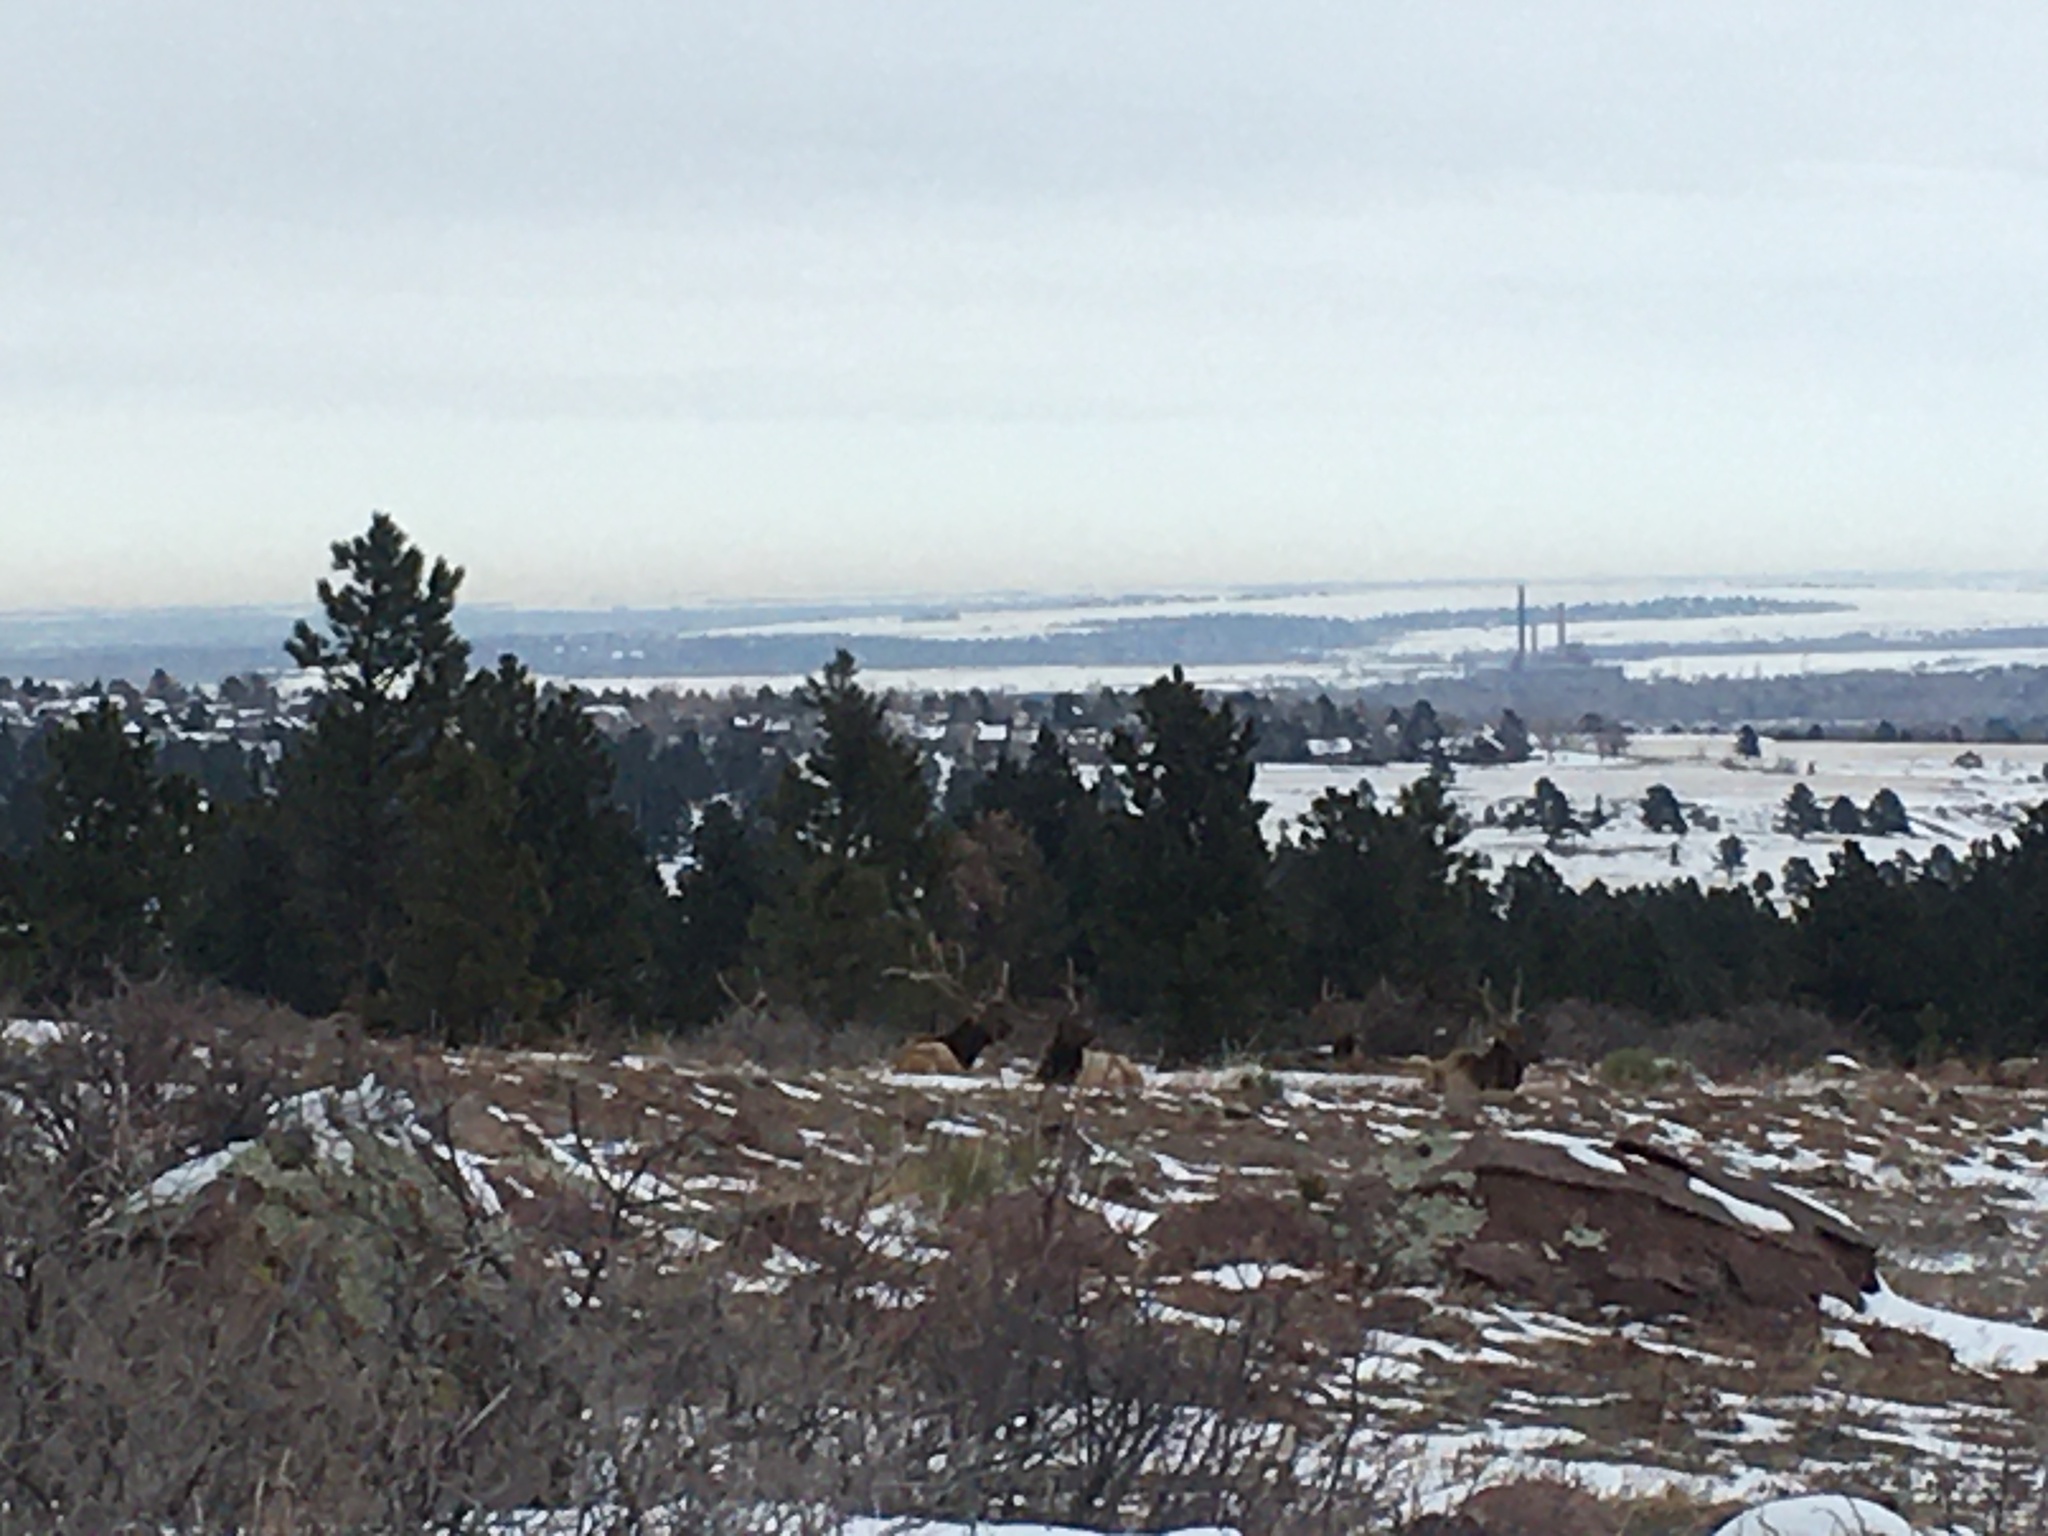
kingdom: Animalia
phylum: Chordata
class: Mammalia
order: Artiodactyla
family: Cervidae
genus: Cervus
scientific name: Cervus elaphus
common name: Red deer
